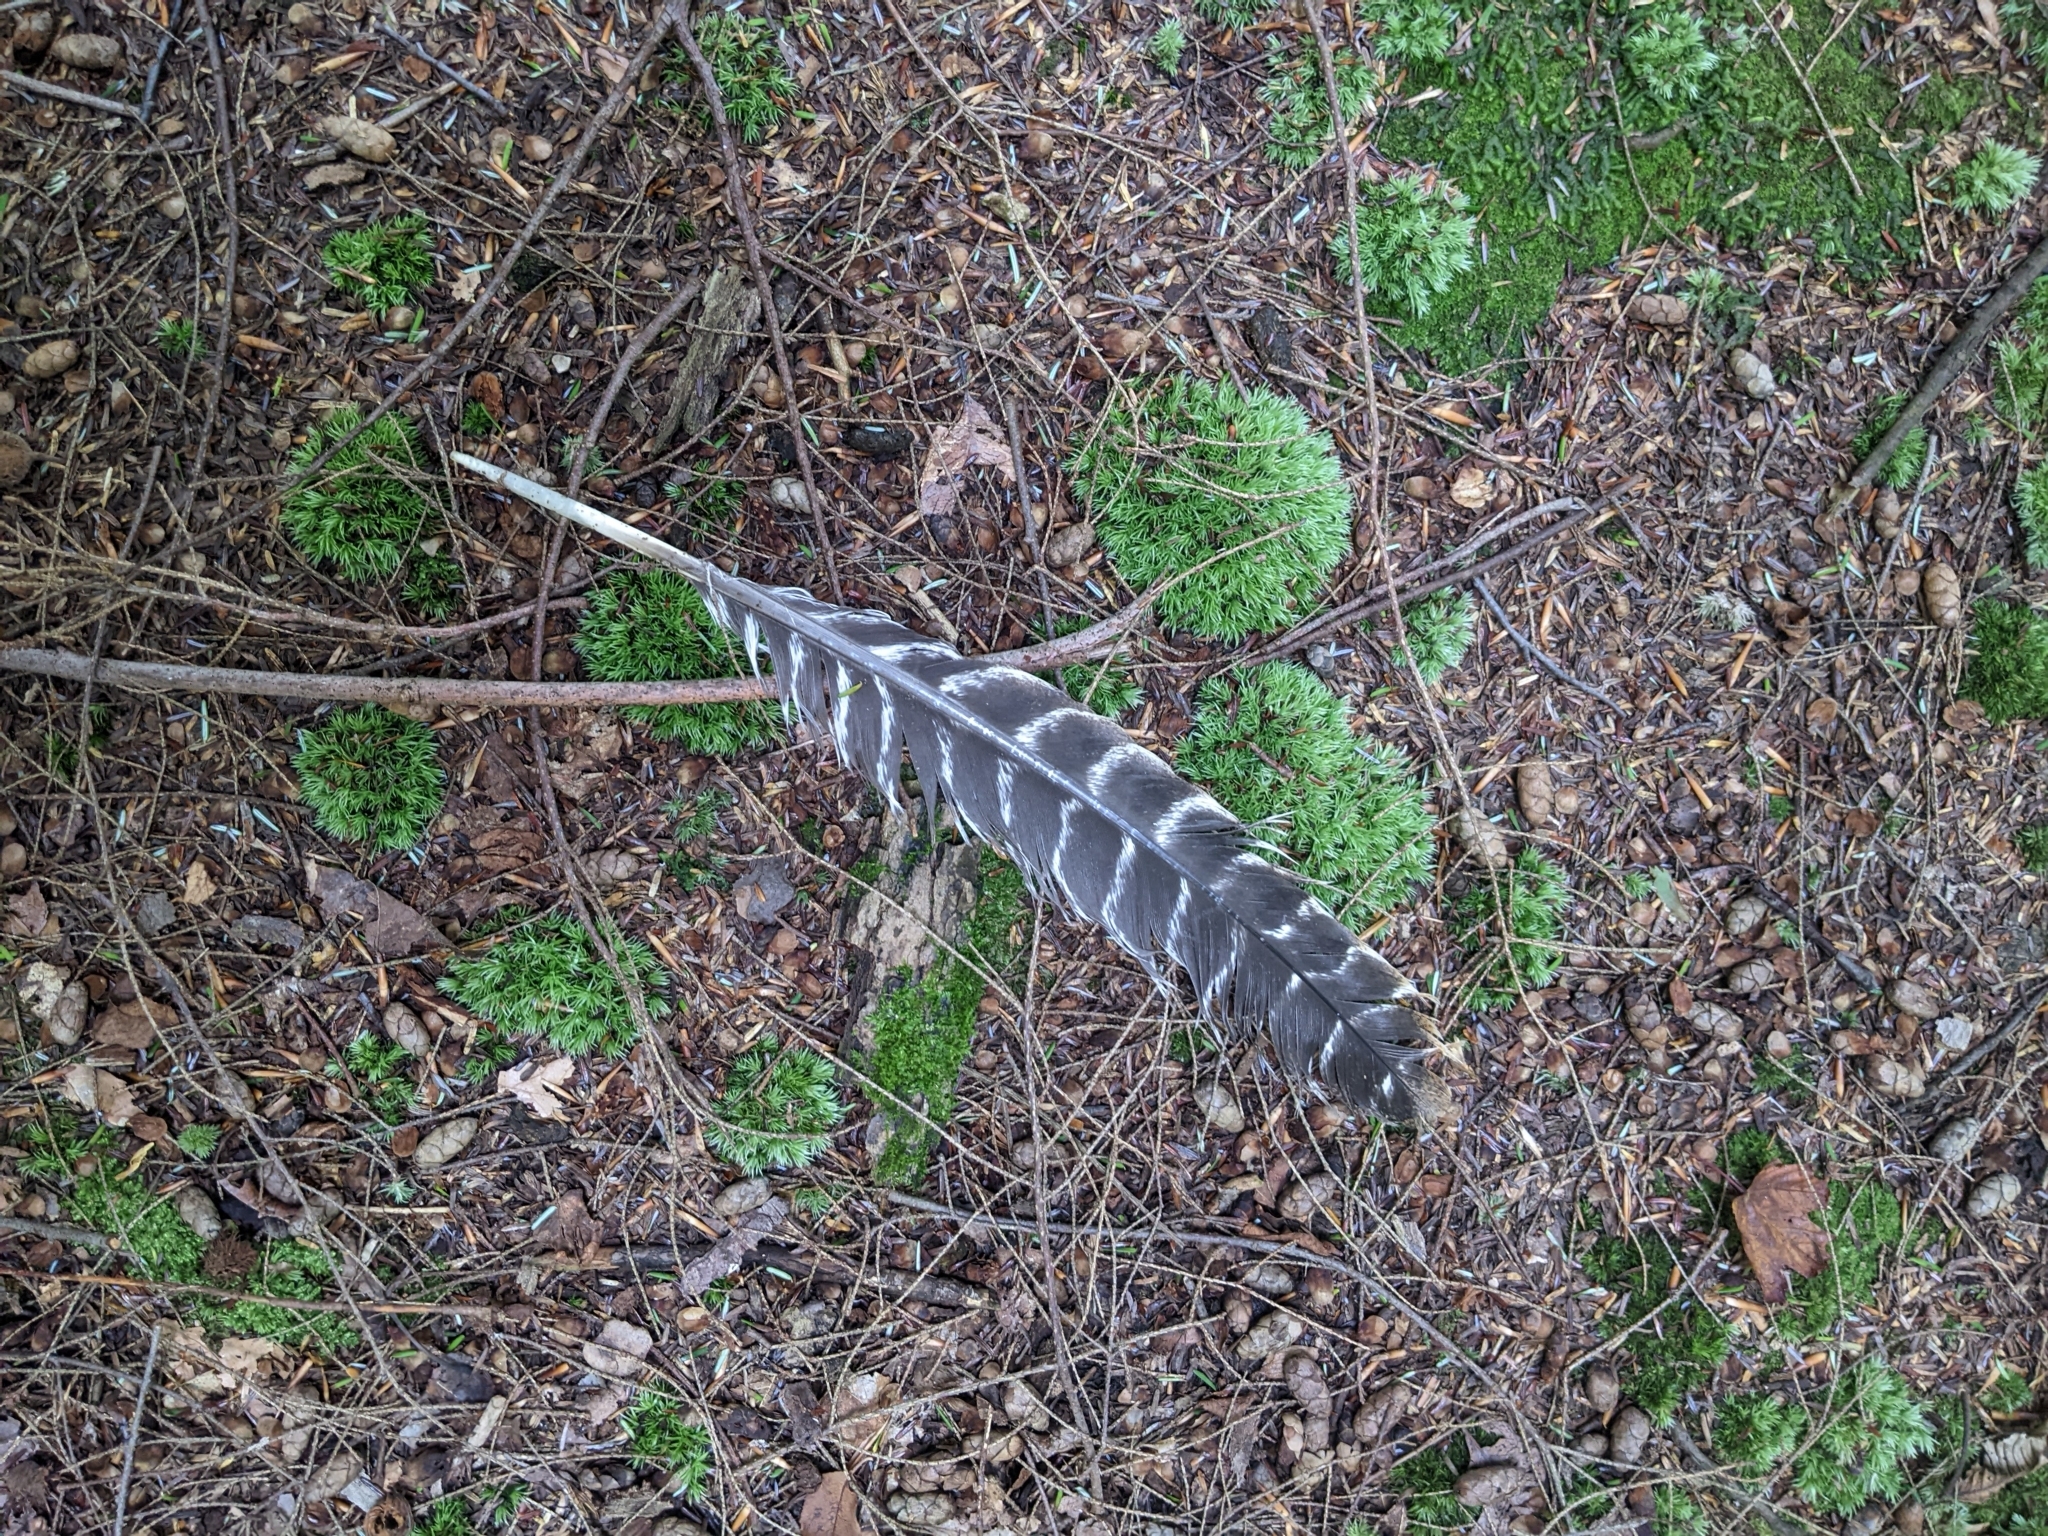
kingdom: Animalia
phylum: Chordata
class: Aves
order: Galliformes
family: Phasianidae
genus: Meleagris
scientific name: Meleagris gallopavo
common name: Wild turkey
